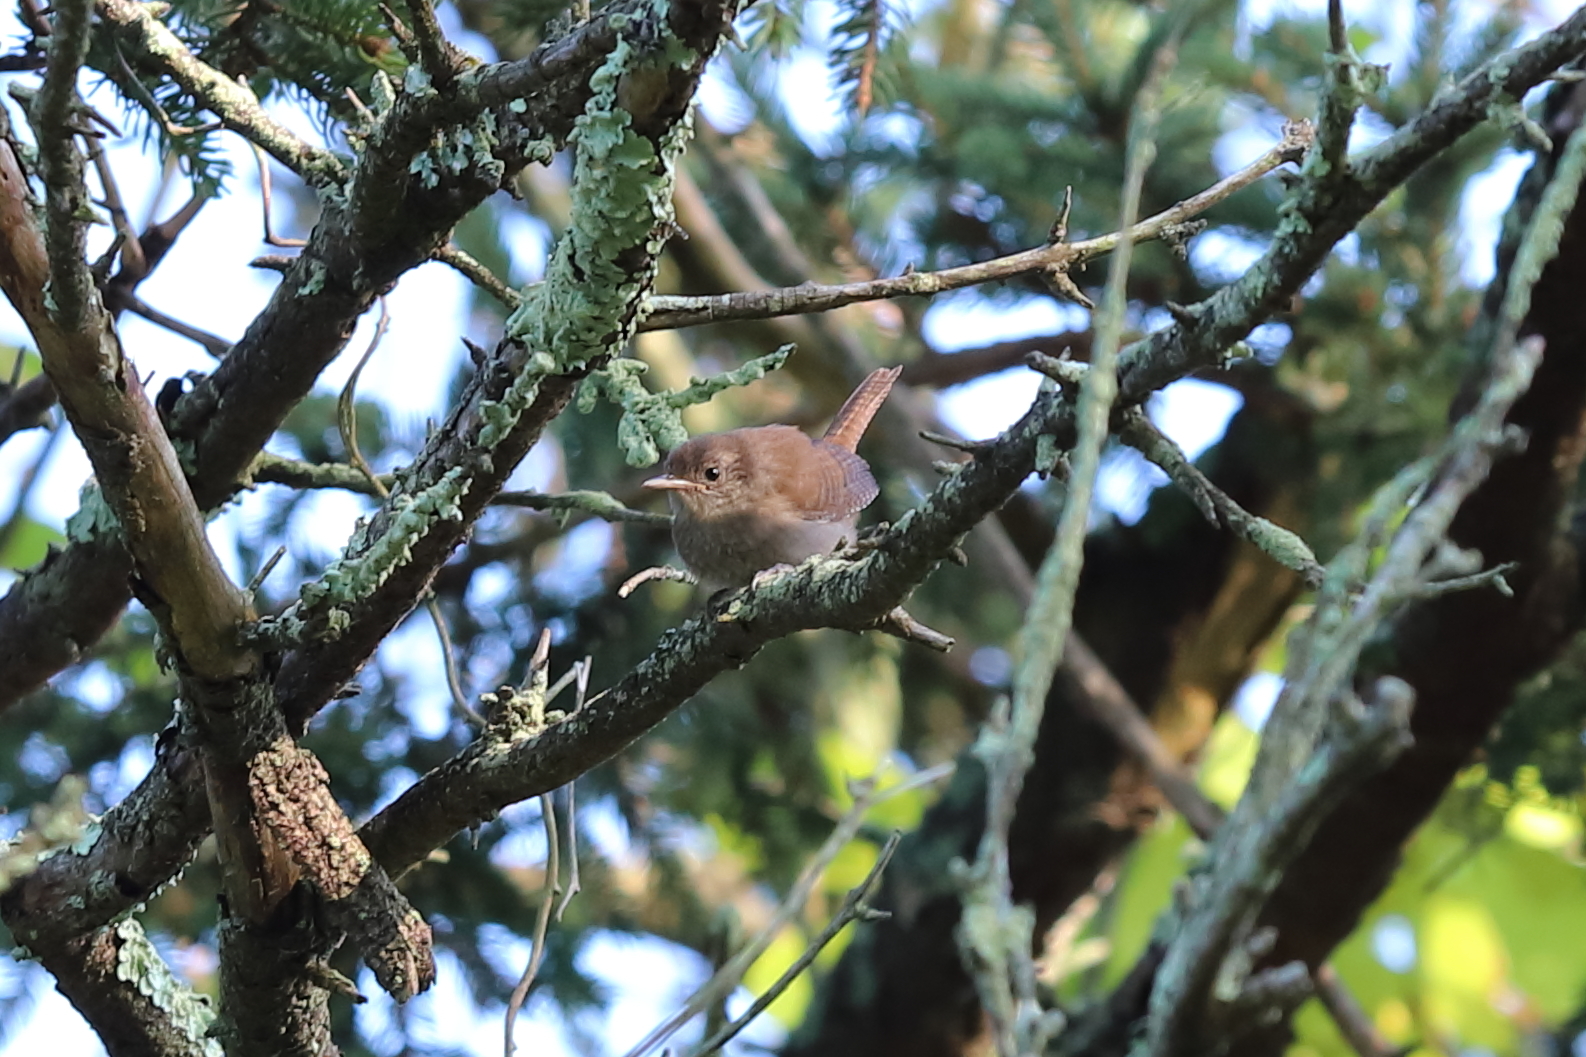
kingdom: Animalia
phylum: Chordata
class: Aves
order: Passeriformes
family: Troglodytidae
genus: Troglodytes
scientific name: Troglodytes aedon
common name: House wren
